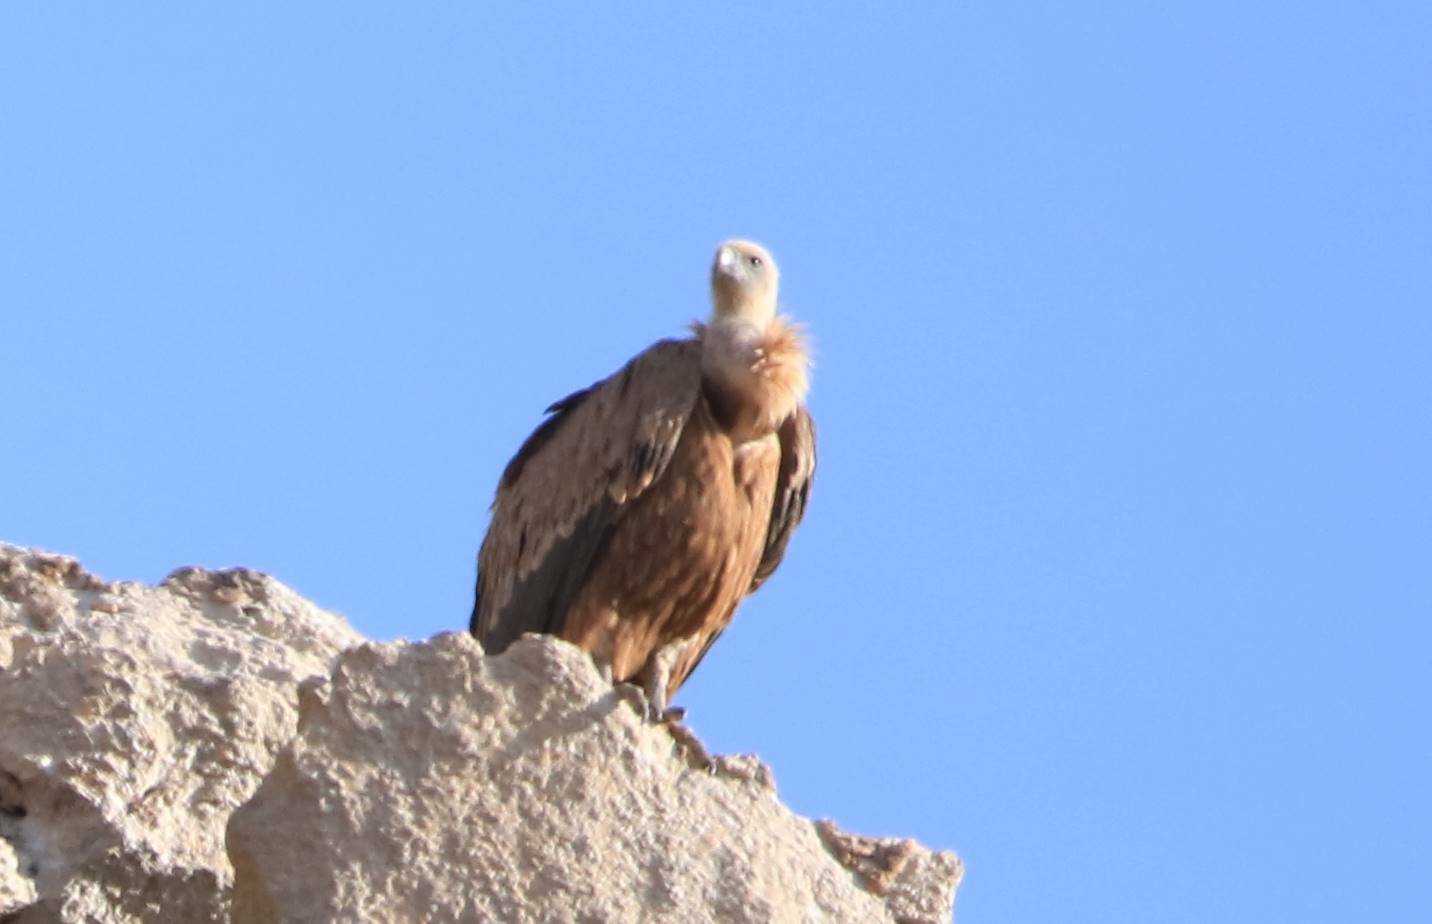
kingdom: Animalia
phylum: Chordata
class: Aves
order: Accipitriformes
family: Accipitridae
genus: Gyps
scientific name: Gyps fulvus
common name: Griffon vulture
